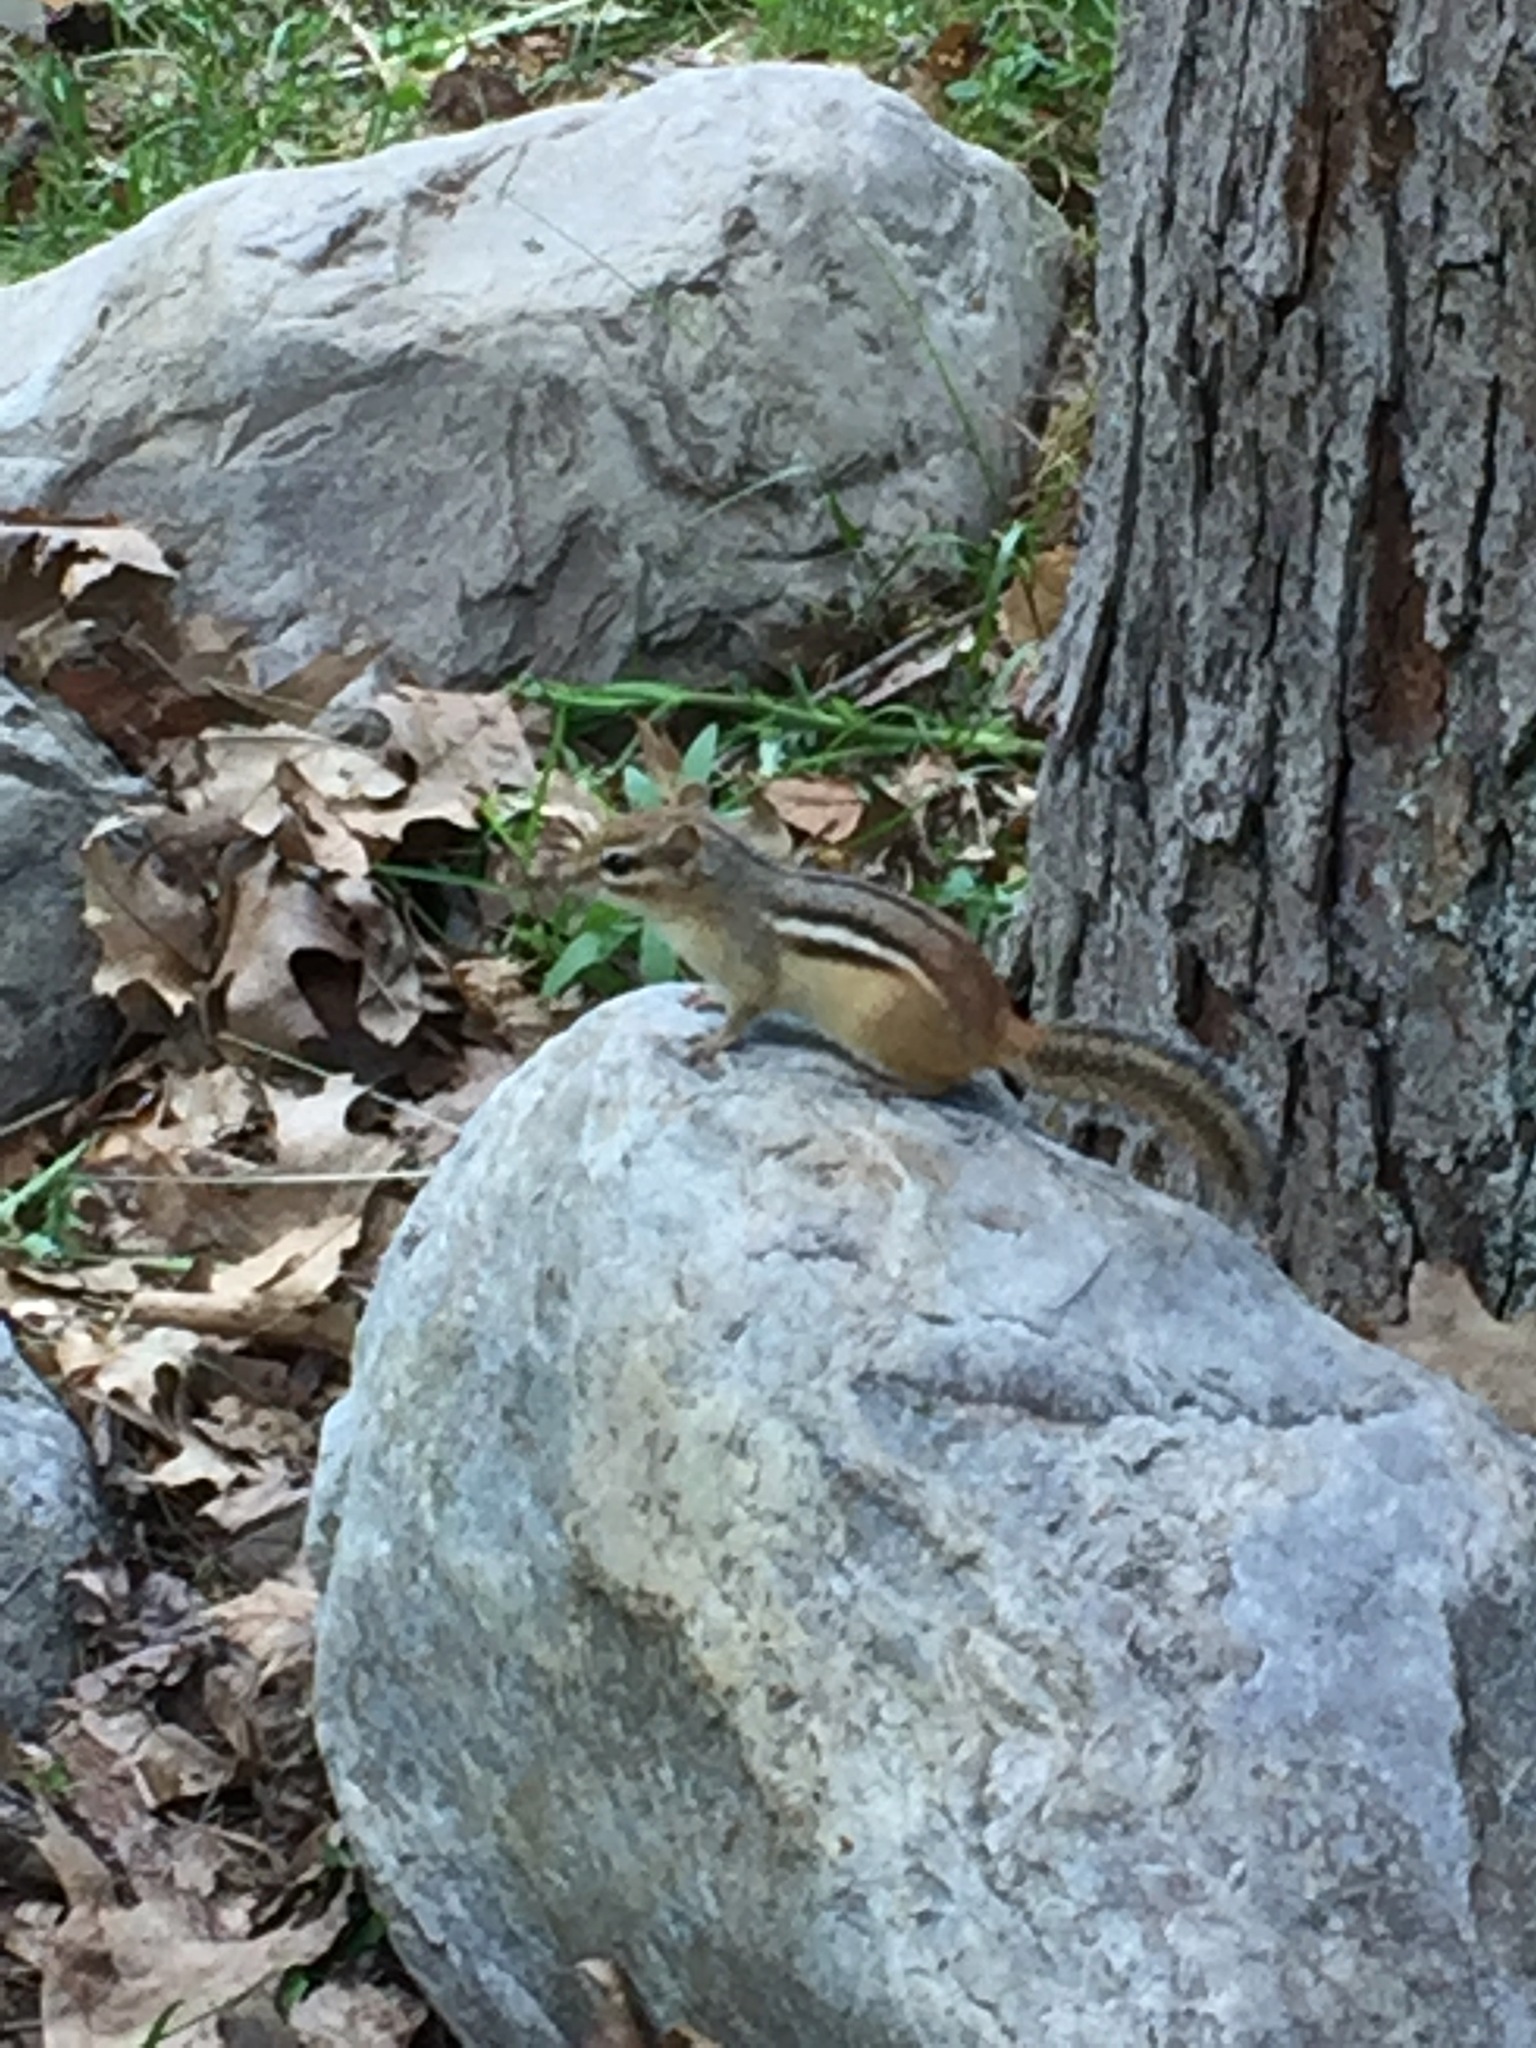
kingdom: Animalia
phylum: Chordata
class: Mammalia
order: Rodentia
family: Sciuridae
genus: Tamias
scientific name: Tamias striatus
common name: Eastern chipmunk
